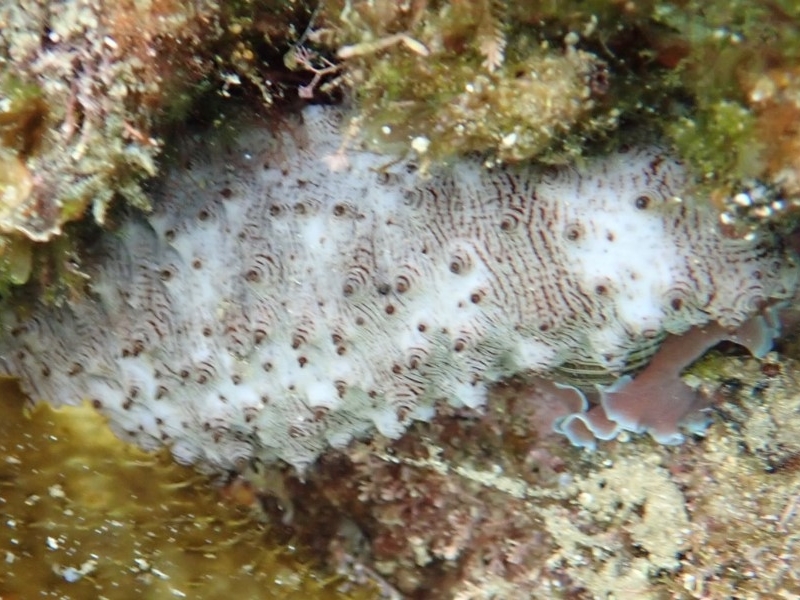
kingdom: Animalia
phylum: Echinodermata
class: Holothuroidea
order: Synallactida
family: Stichopodidae
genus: Australostichopus
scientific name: Australostichopus mollis
